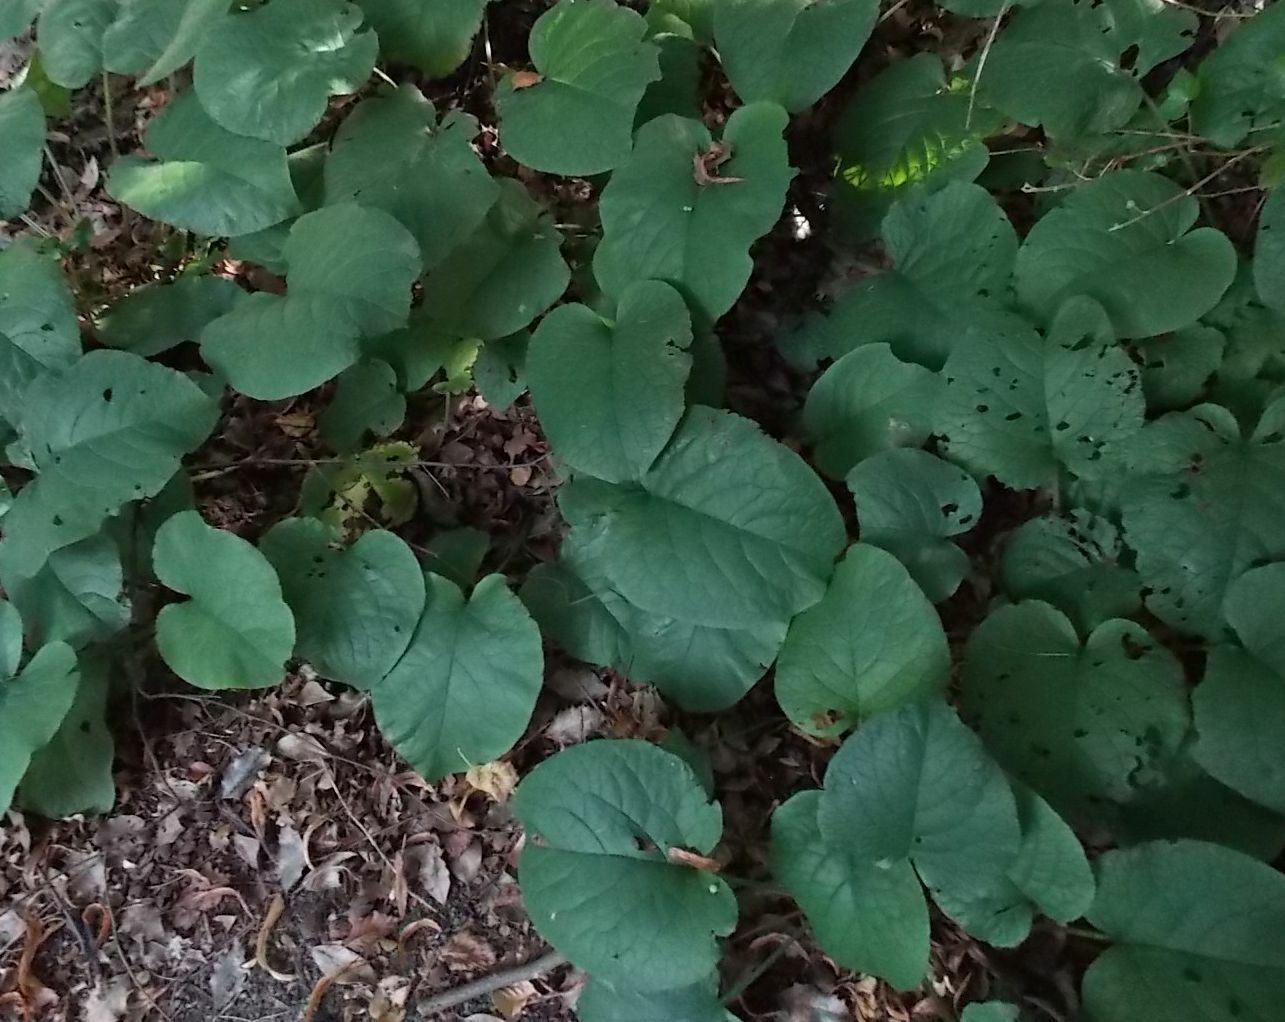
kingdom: Plantae
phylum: Tracheophyta
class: Magnoliopsida
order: Boraginales
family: Boraginaceae
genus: Trachystemon
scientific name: Trachystemon orientale
